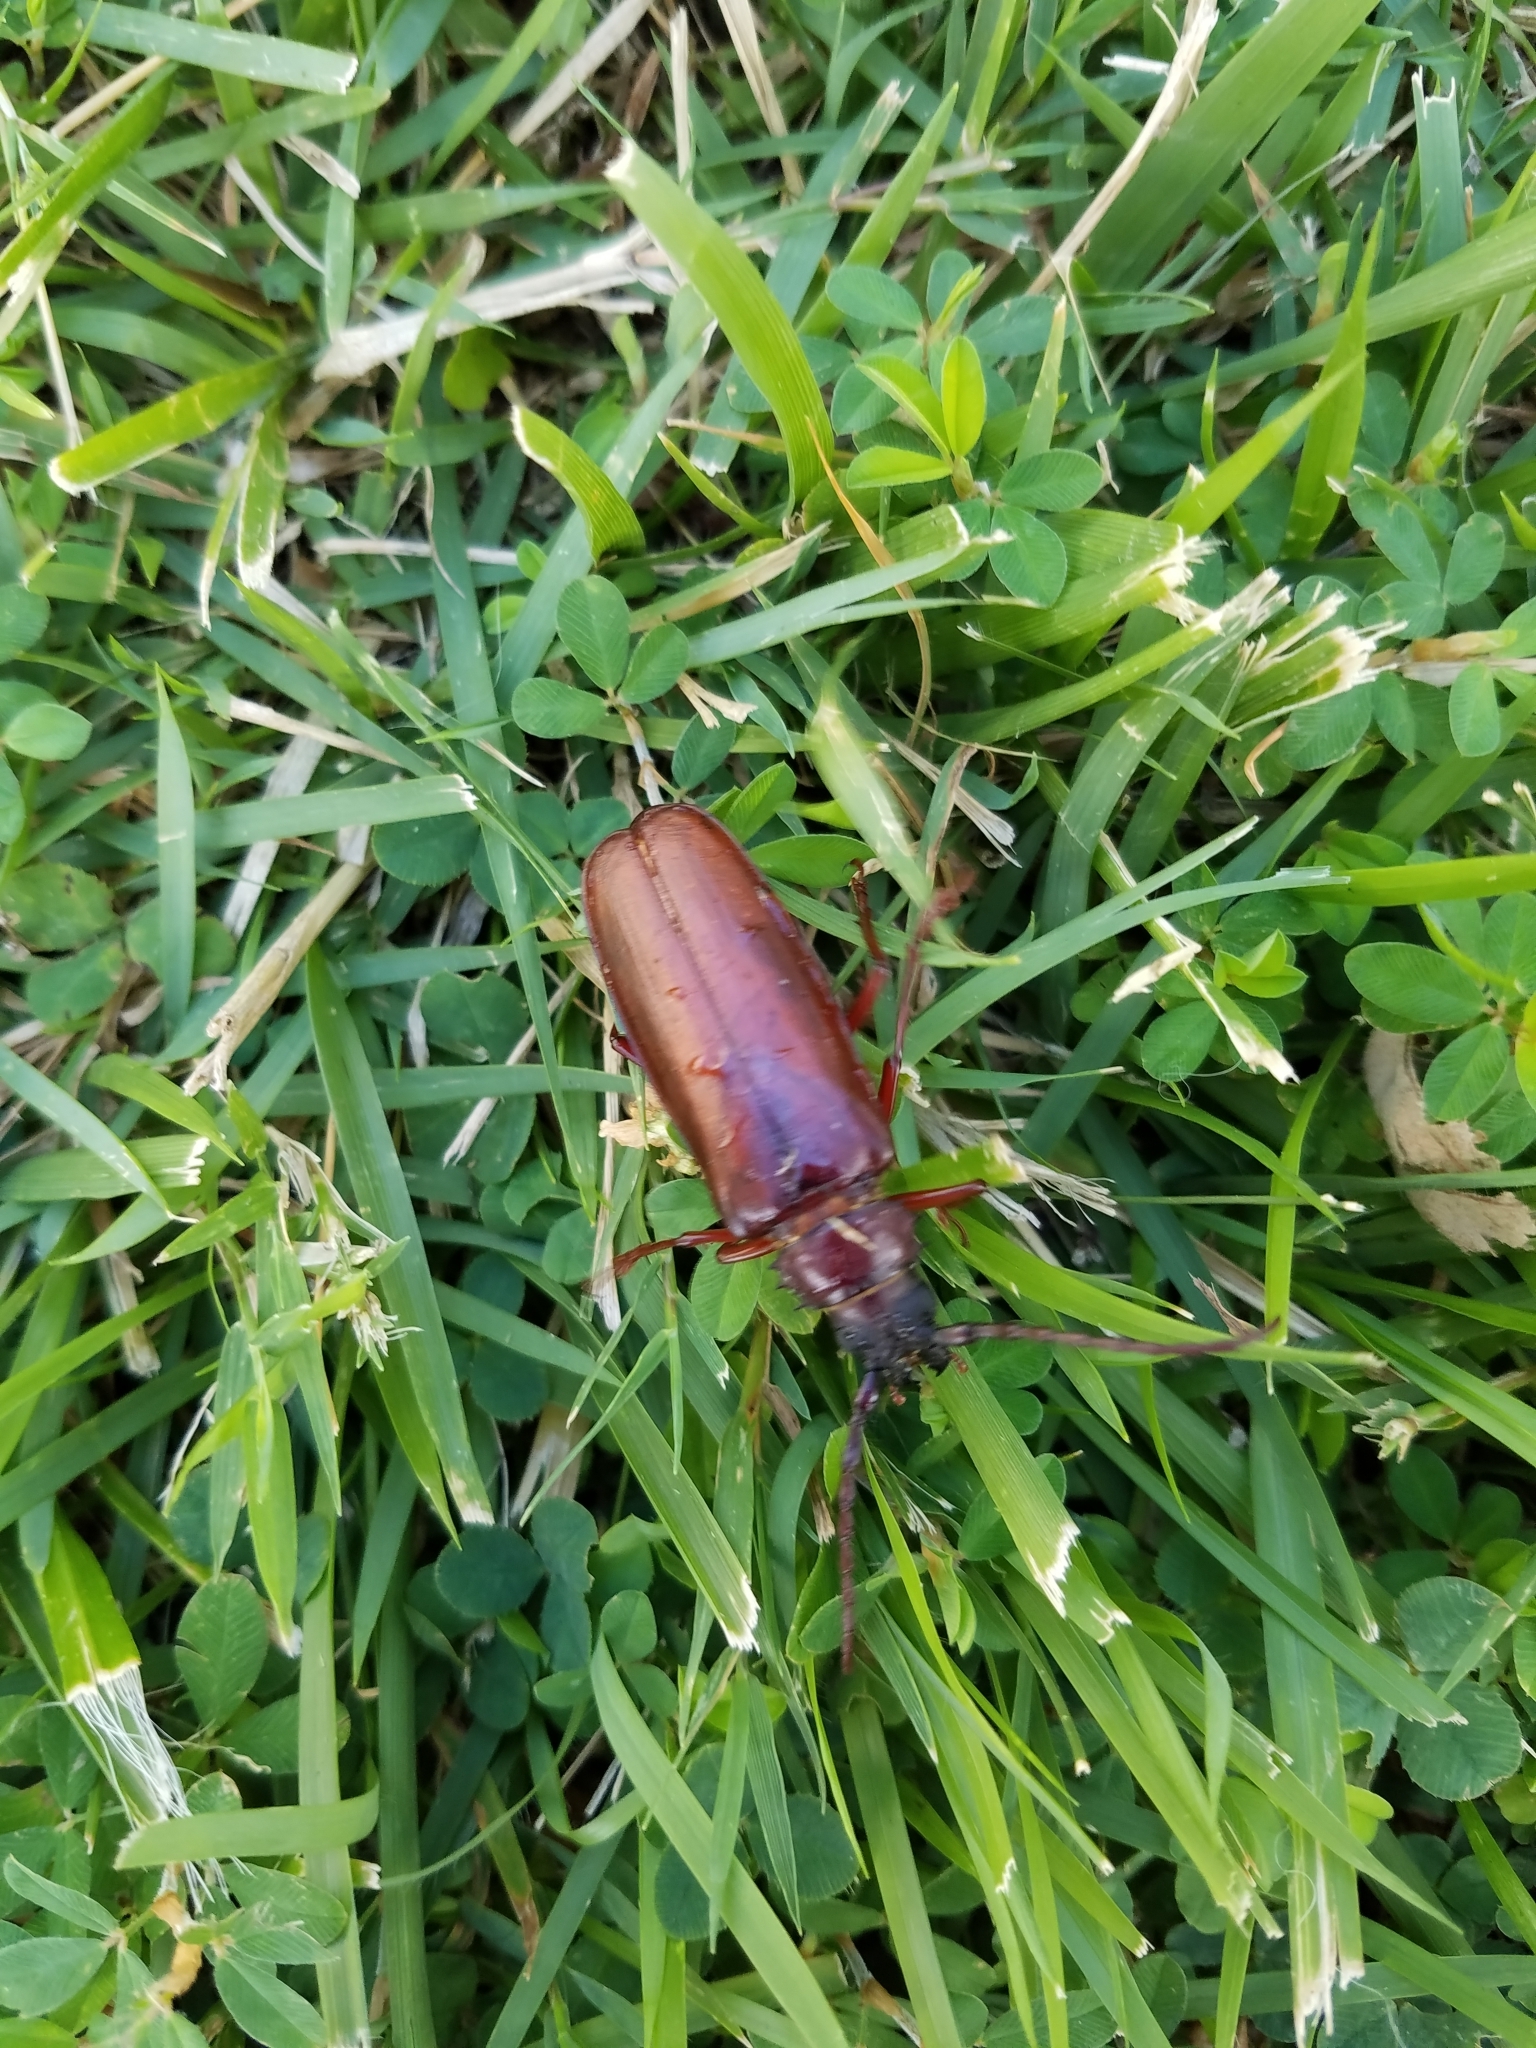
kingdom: Animalia
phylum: Arthropoda
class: Insecta
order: Coleoptera
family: Cerambycidae
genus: Orthosoma
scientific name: Orthosoma brunneum
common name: Brown prionid beetle
